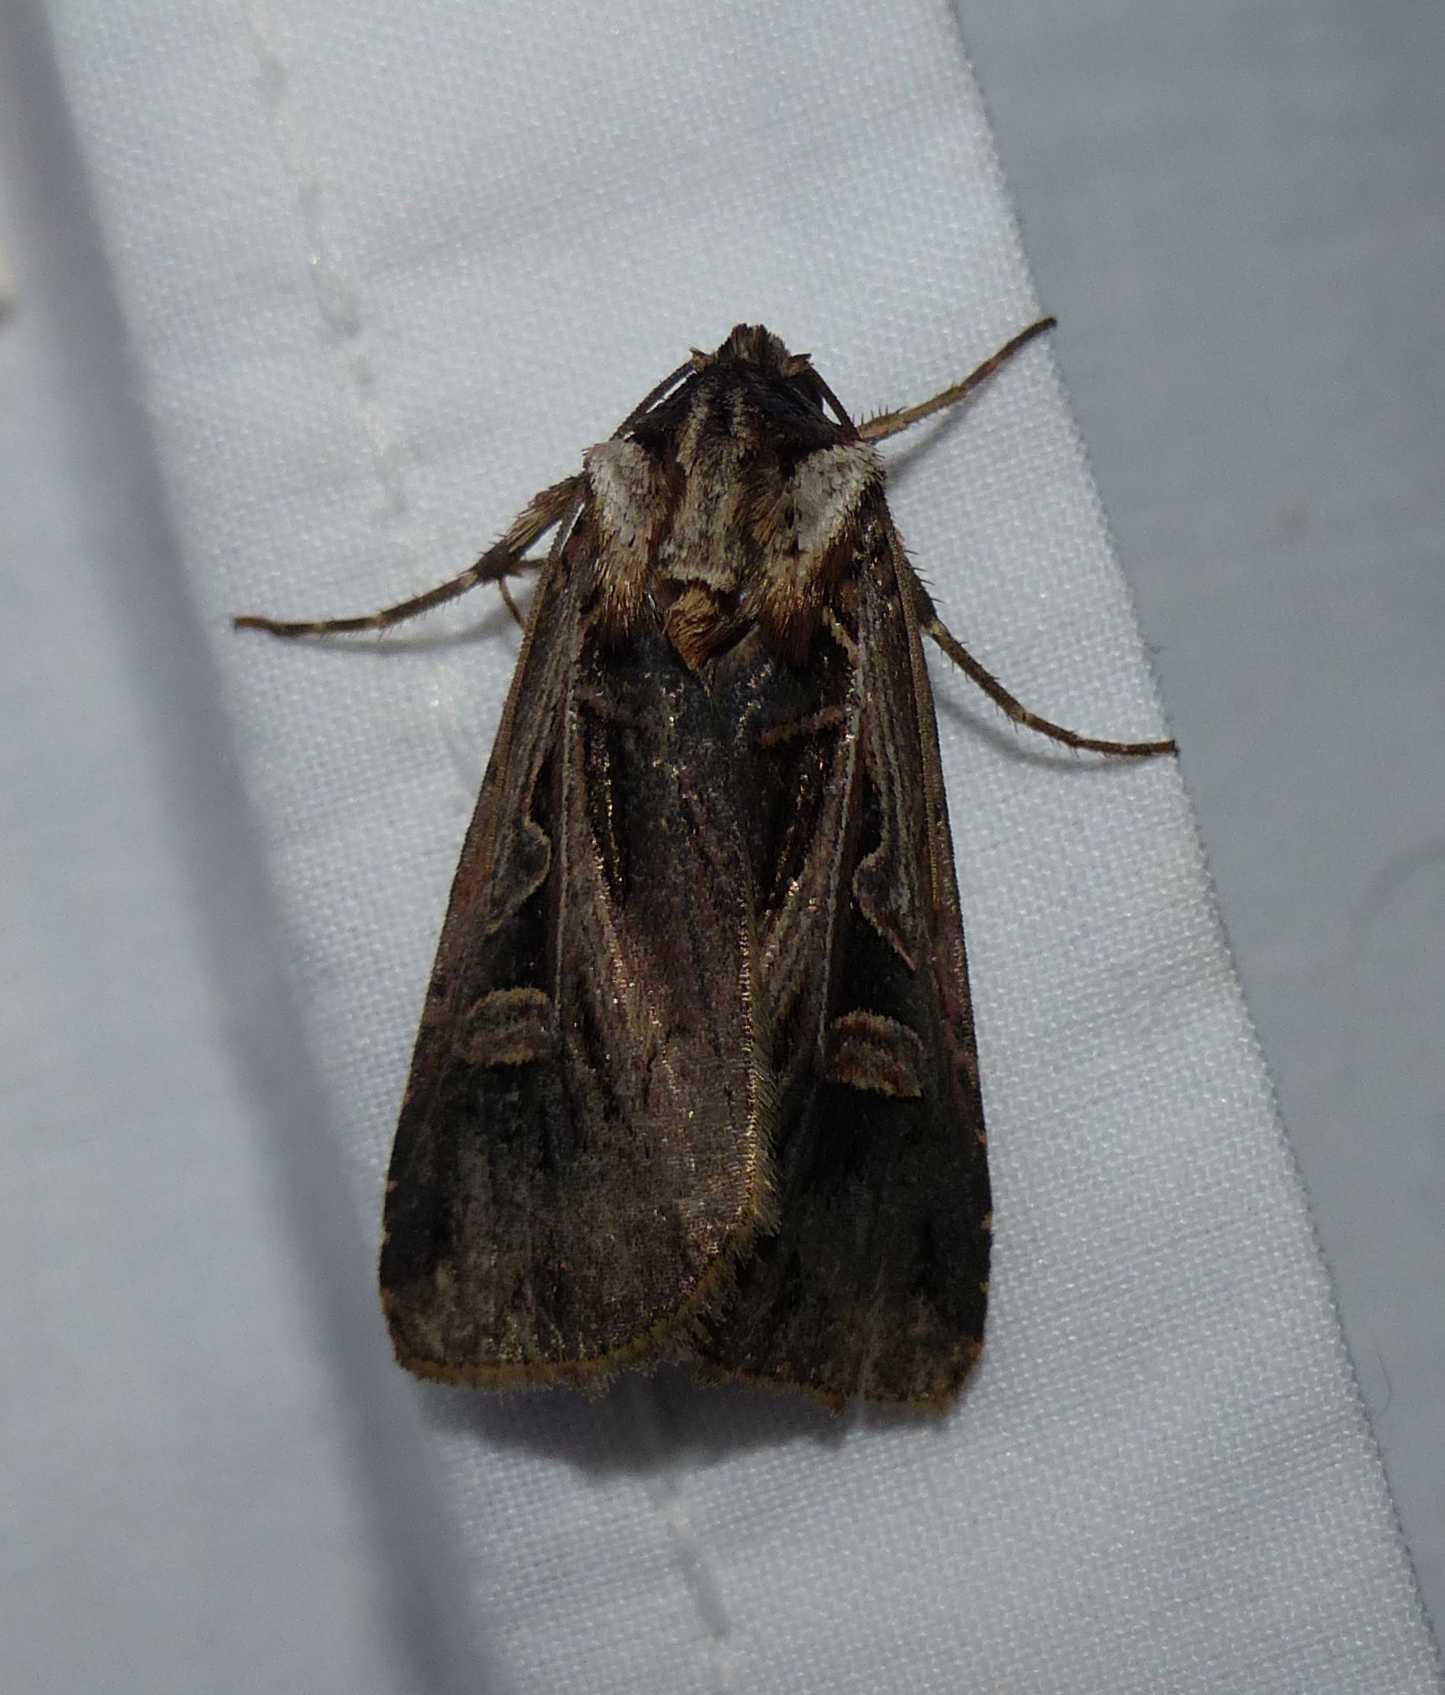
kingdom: Animalia
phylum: Arthropoda
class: Insecta
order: Lepidoptera
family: Noctuidae
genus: Feltia
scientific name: Feltia herilis
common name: Master's dart
